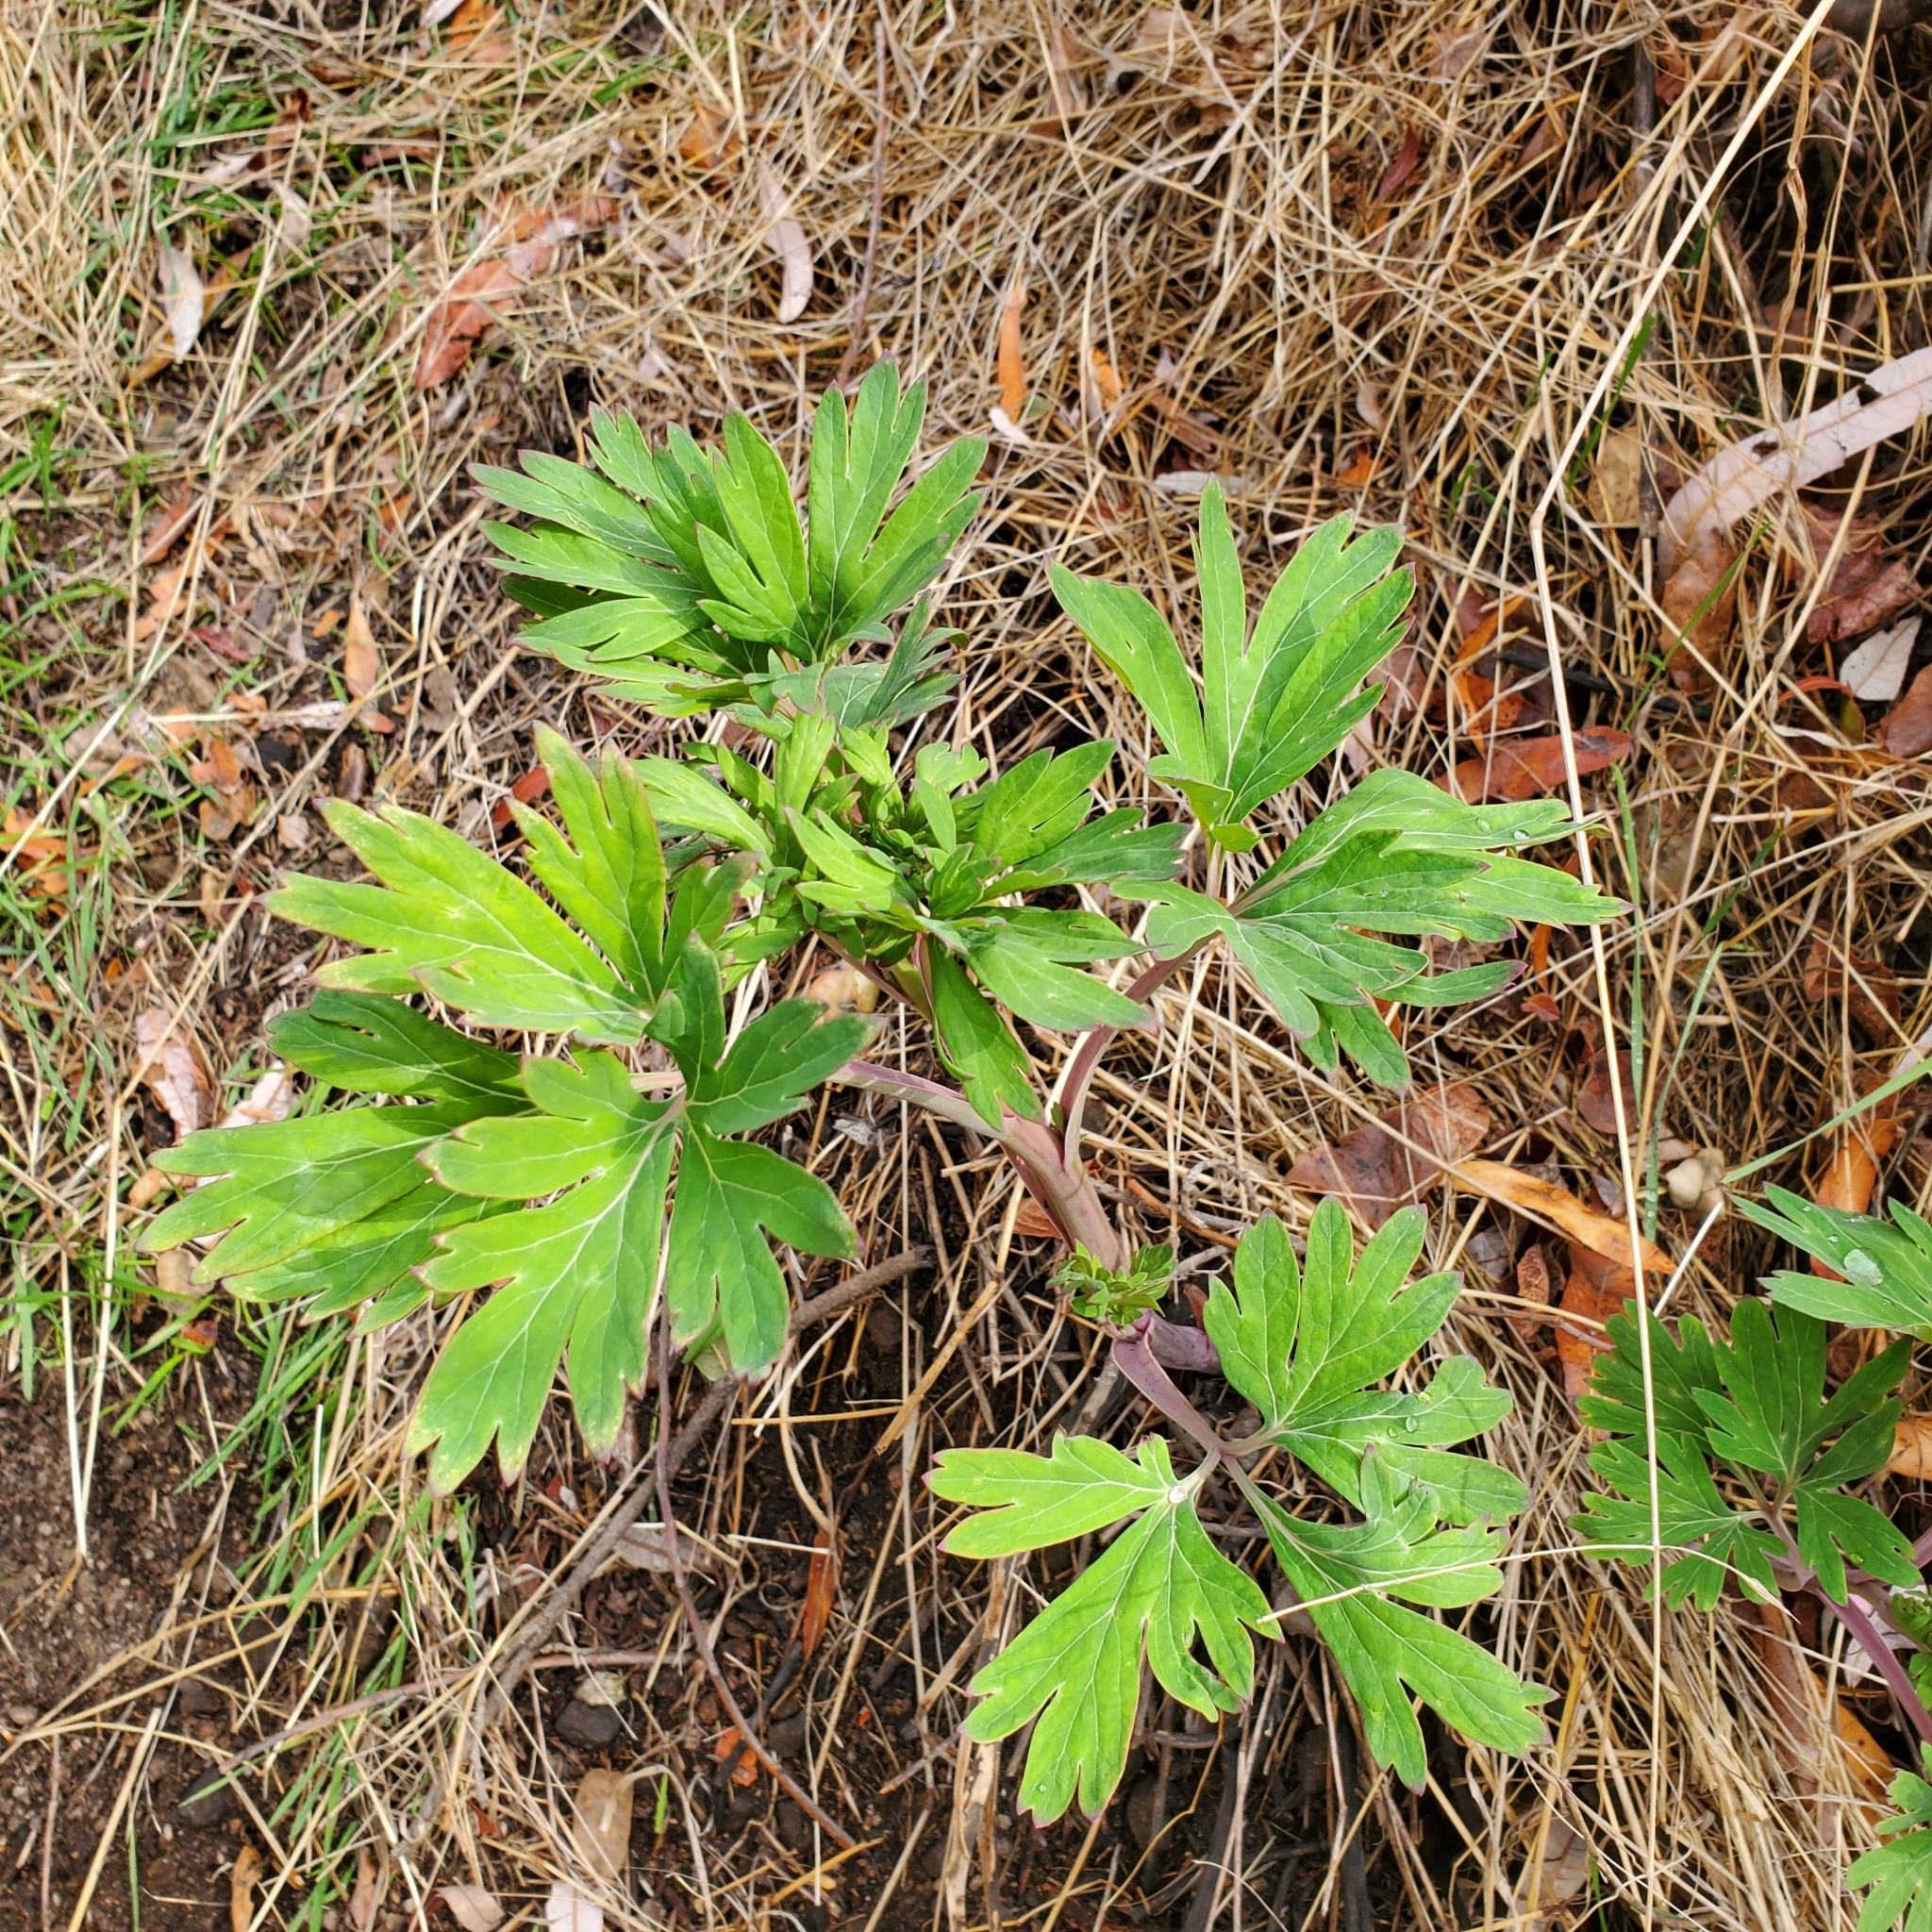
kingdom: Plantae
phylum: Tracheophyta
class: Magnoliopsida
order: Saxifragales
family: Paeoniaceae
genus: Paeonia
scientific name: Paeonia californica
